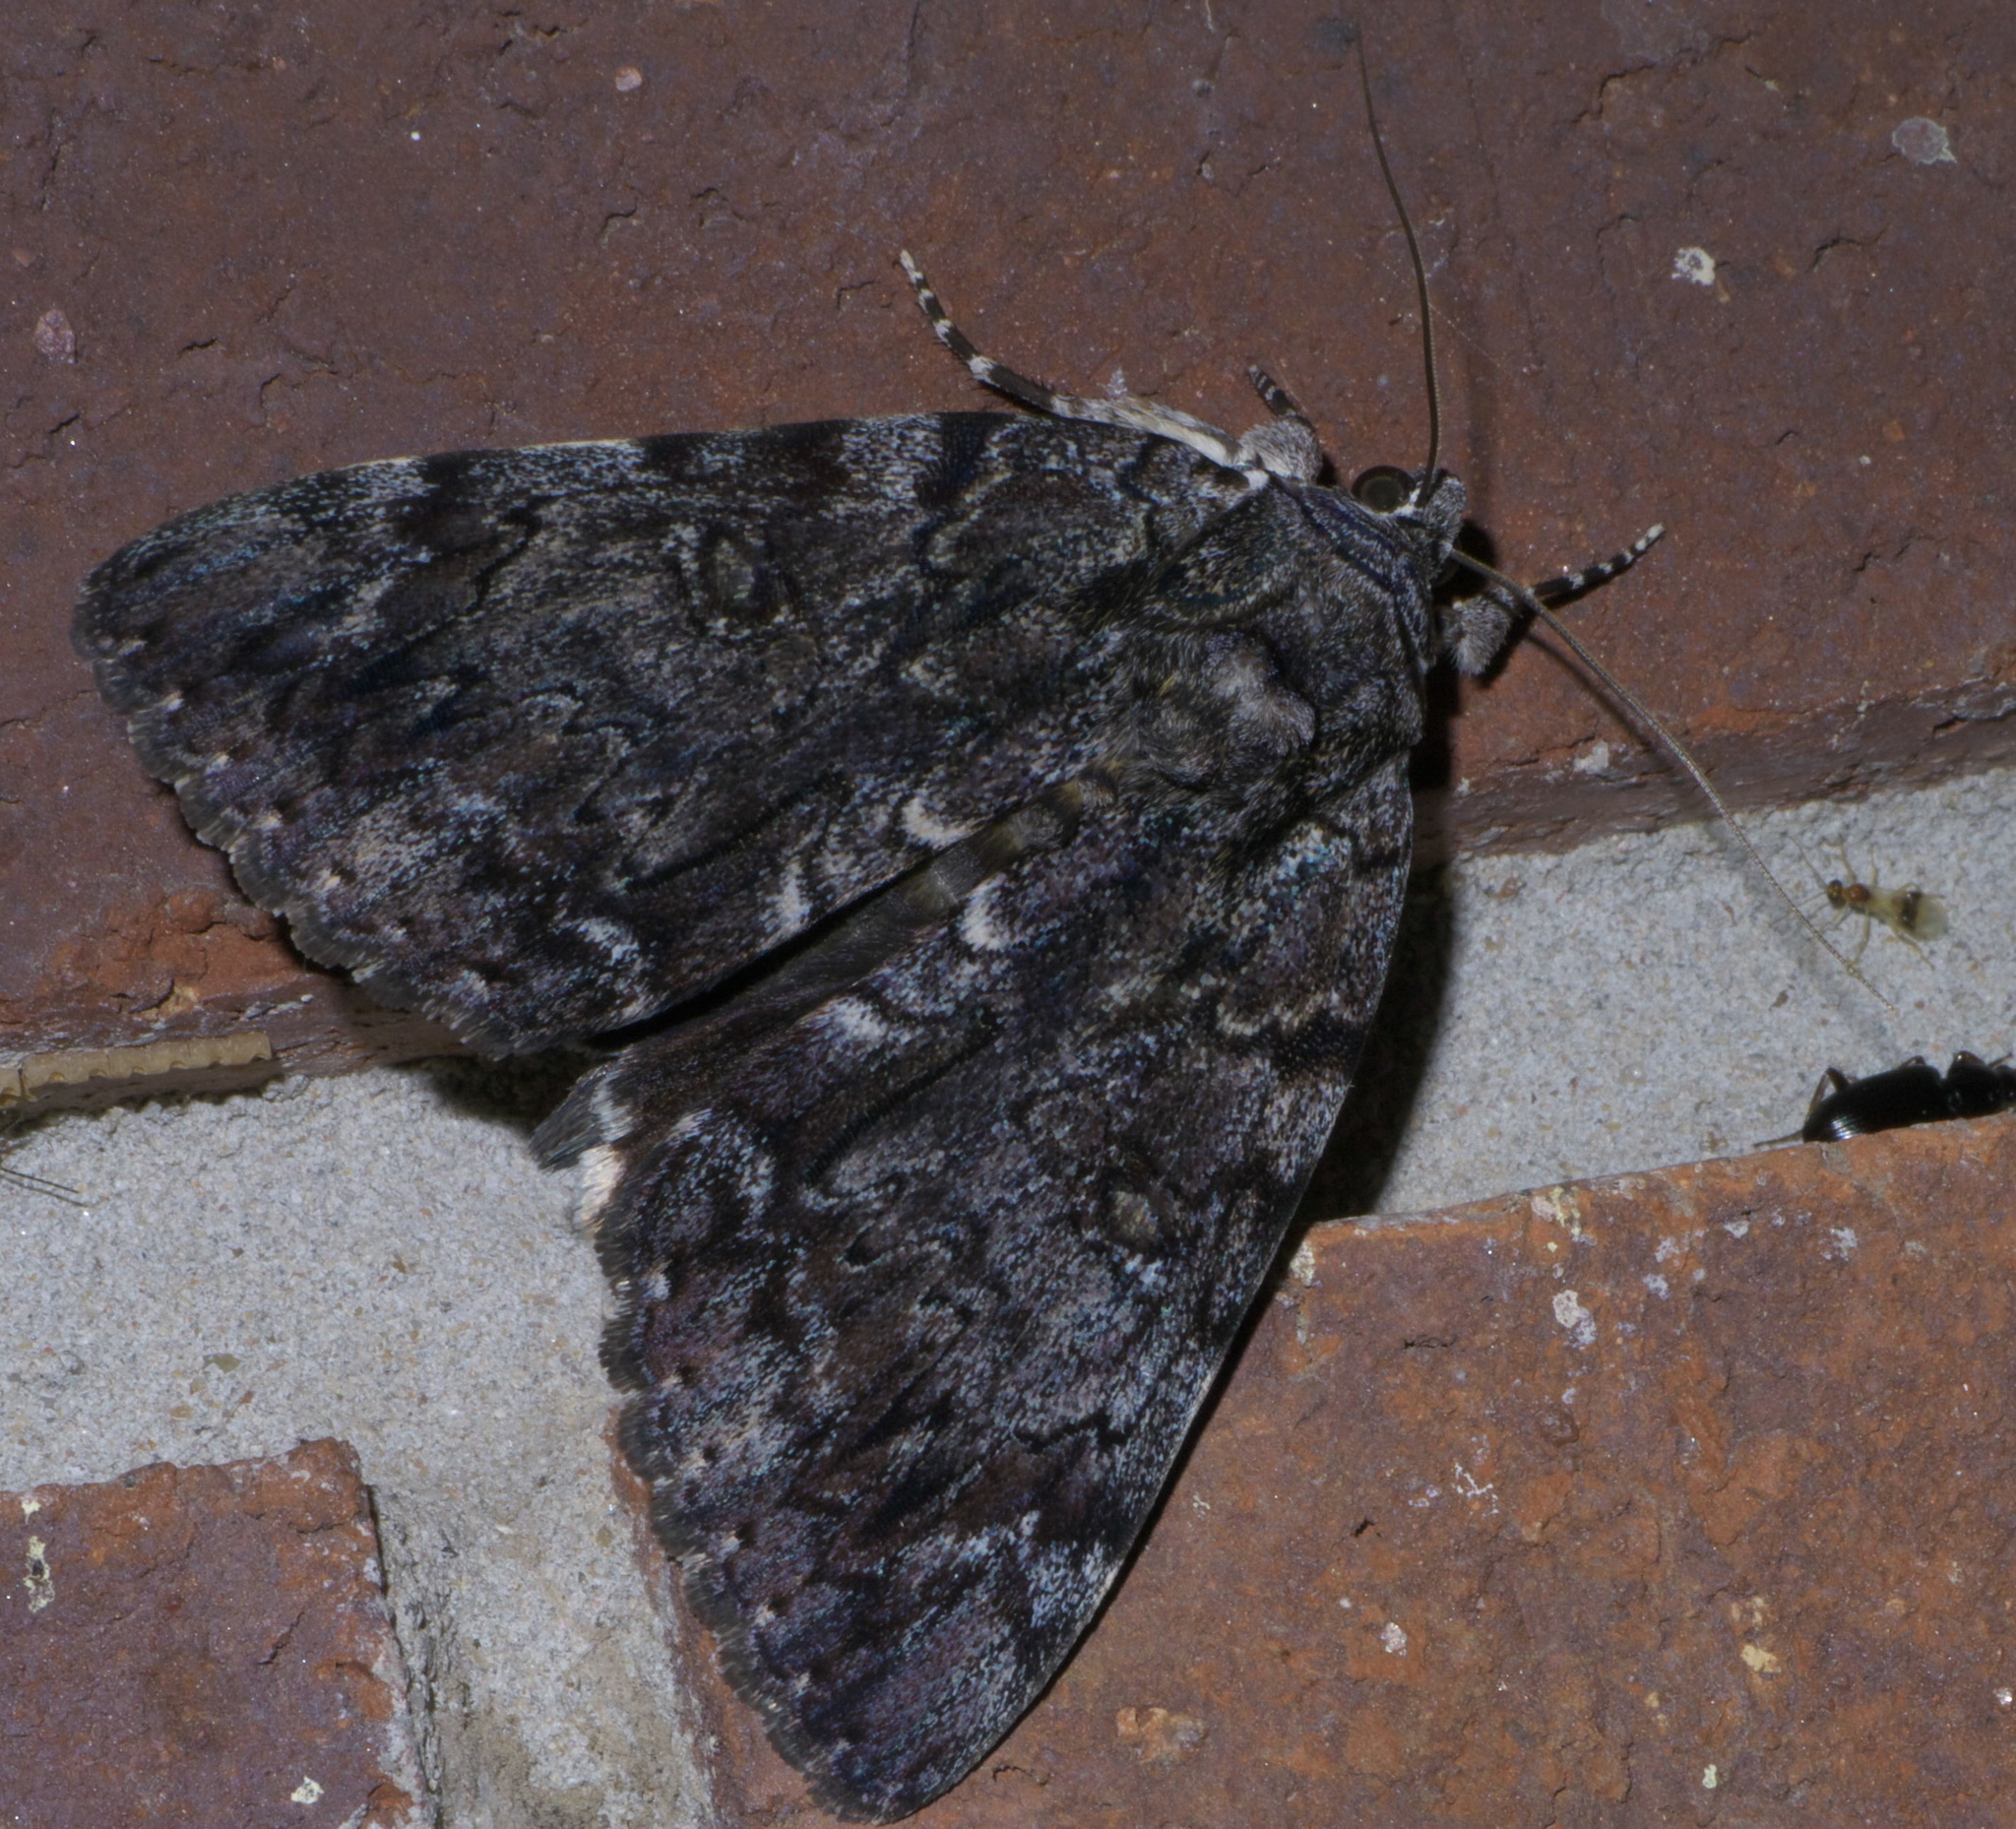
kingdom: Animalia
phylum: Arthropoda
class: Insecta
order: Lepidoptera
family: Erebidae
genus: Catocala
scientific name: Catocala lacrymosa
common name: Tearful underwing
